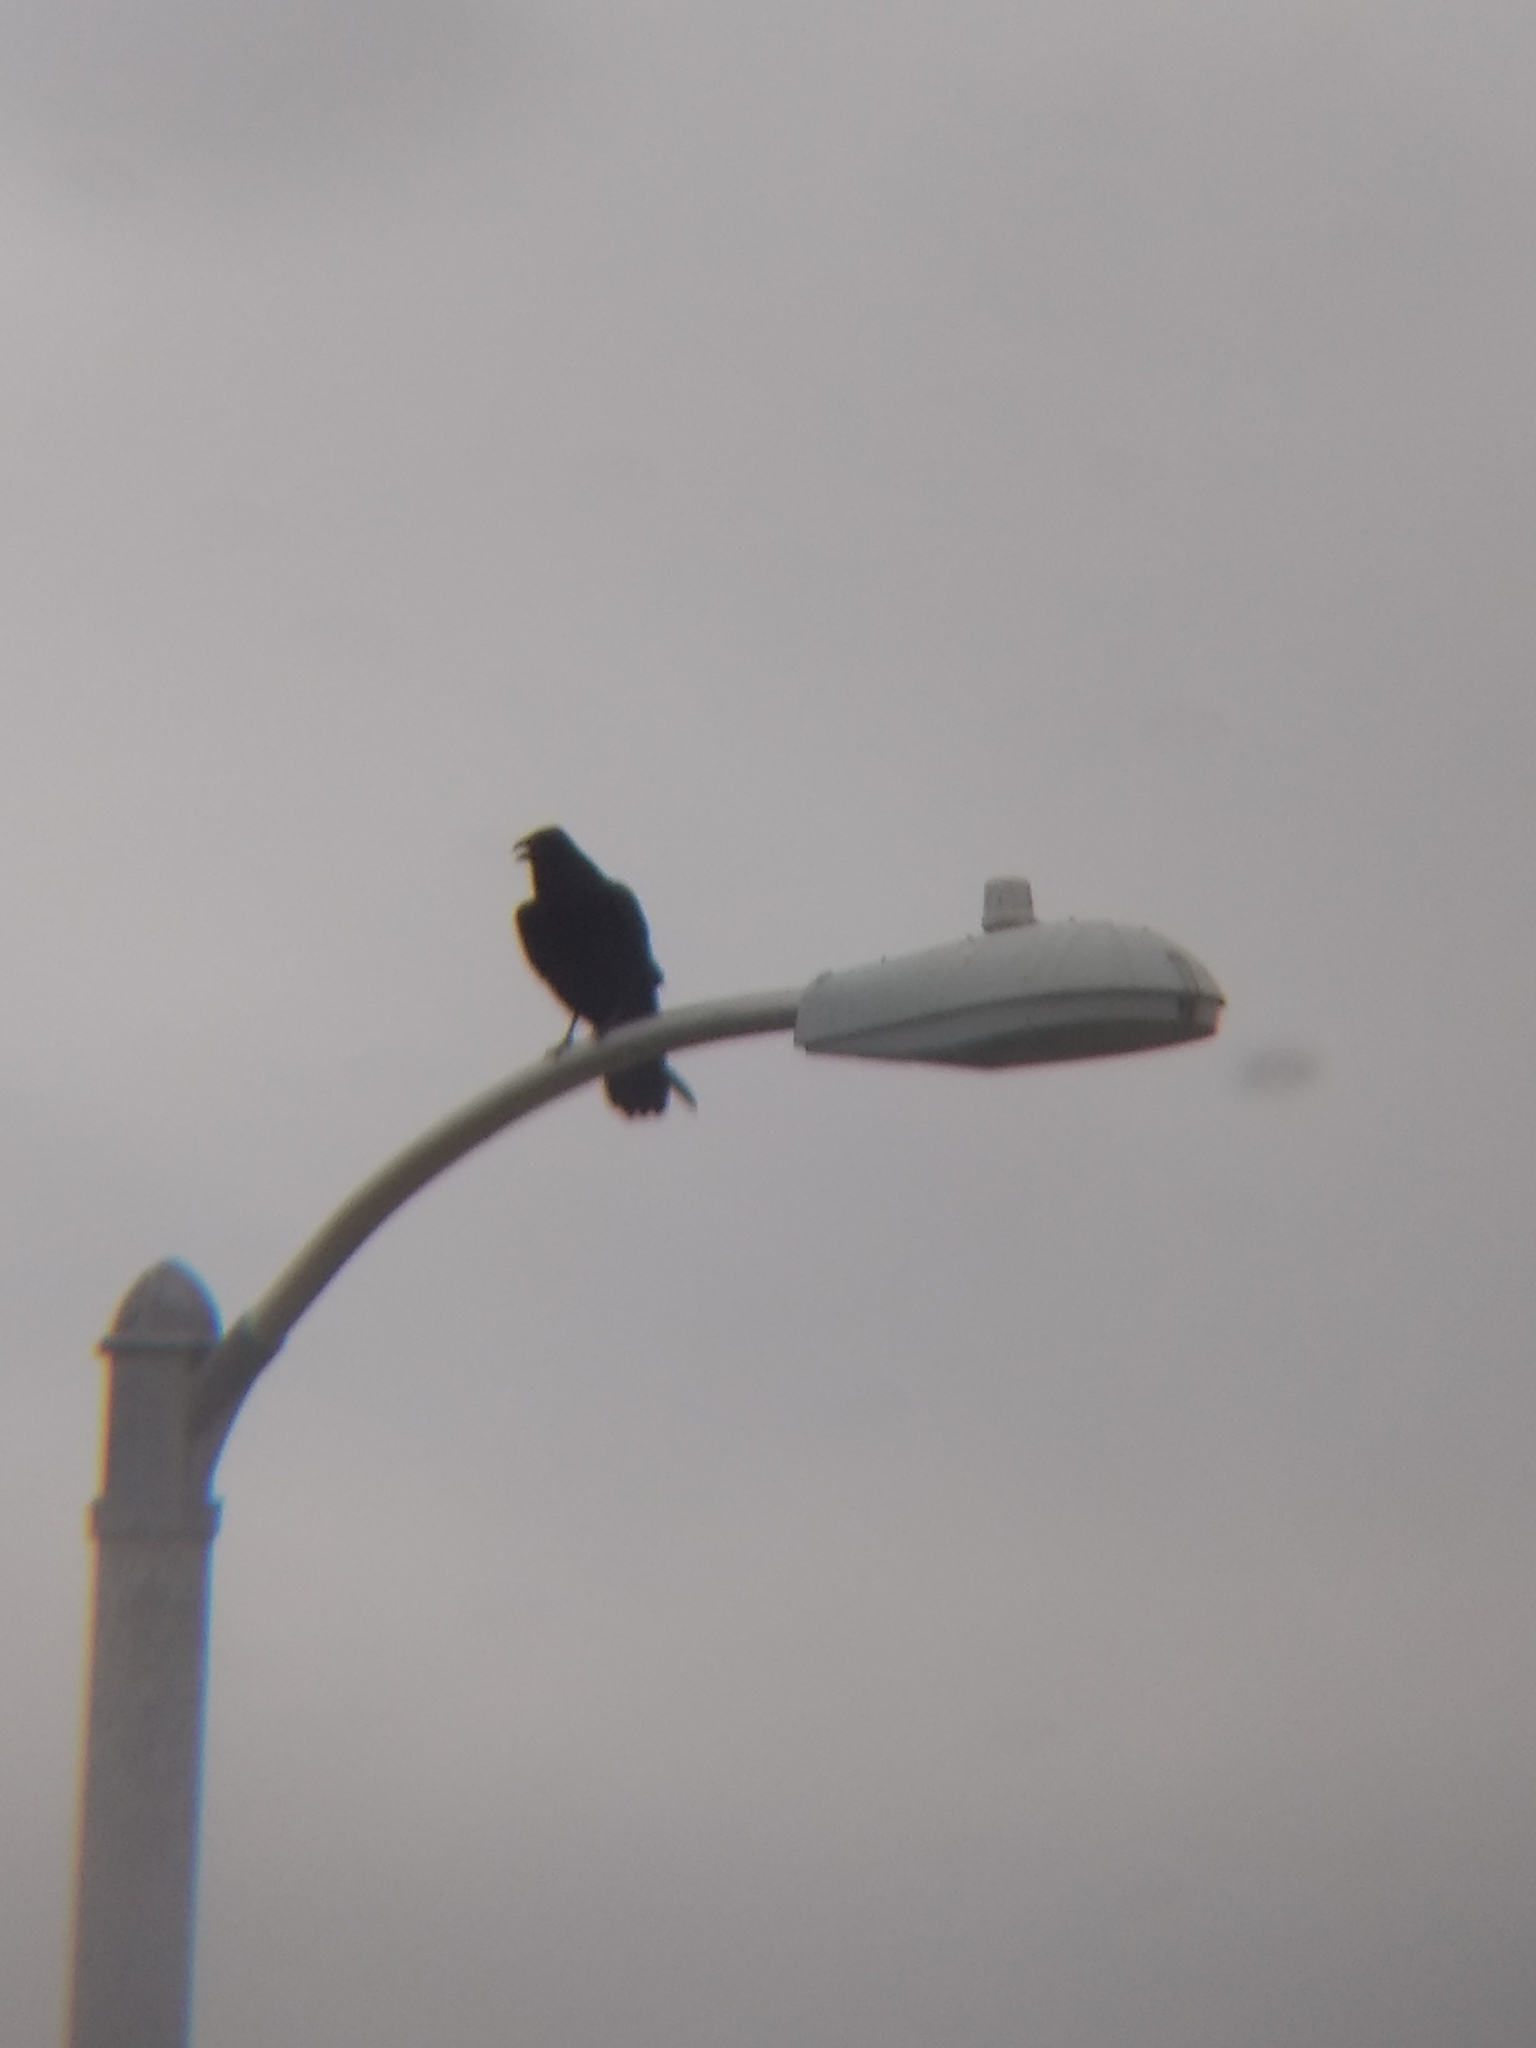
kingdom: Animalia
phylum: Chordata
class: Aves
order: Passeriformes
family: Corvidae
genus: Corvus
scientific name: Corvus corax
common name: Common raven
